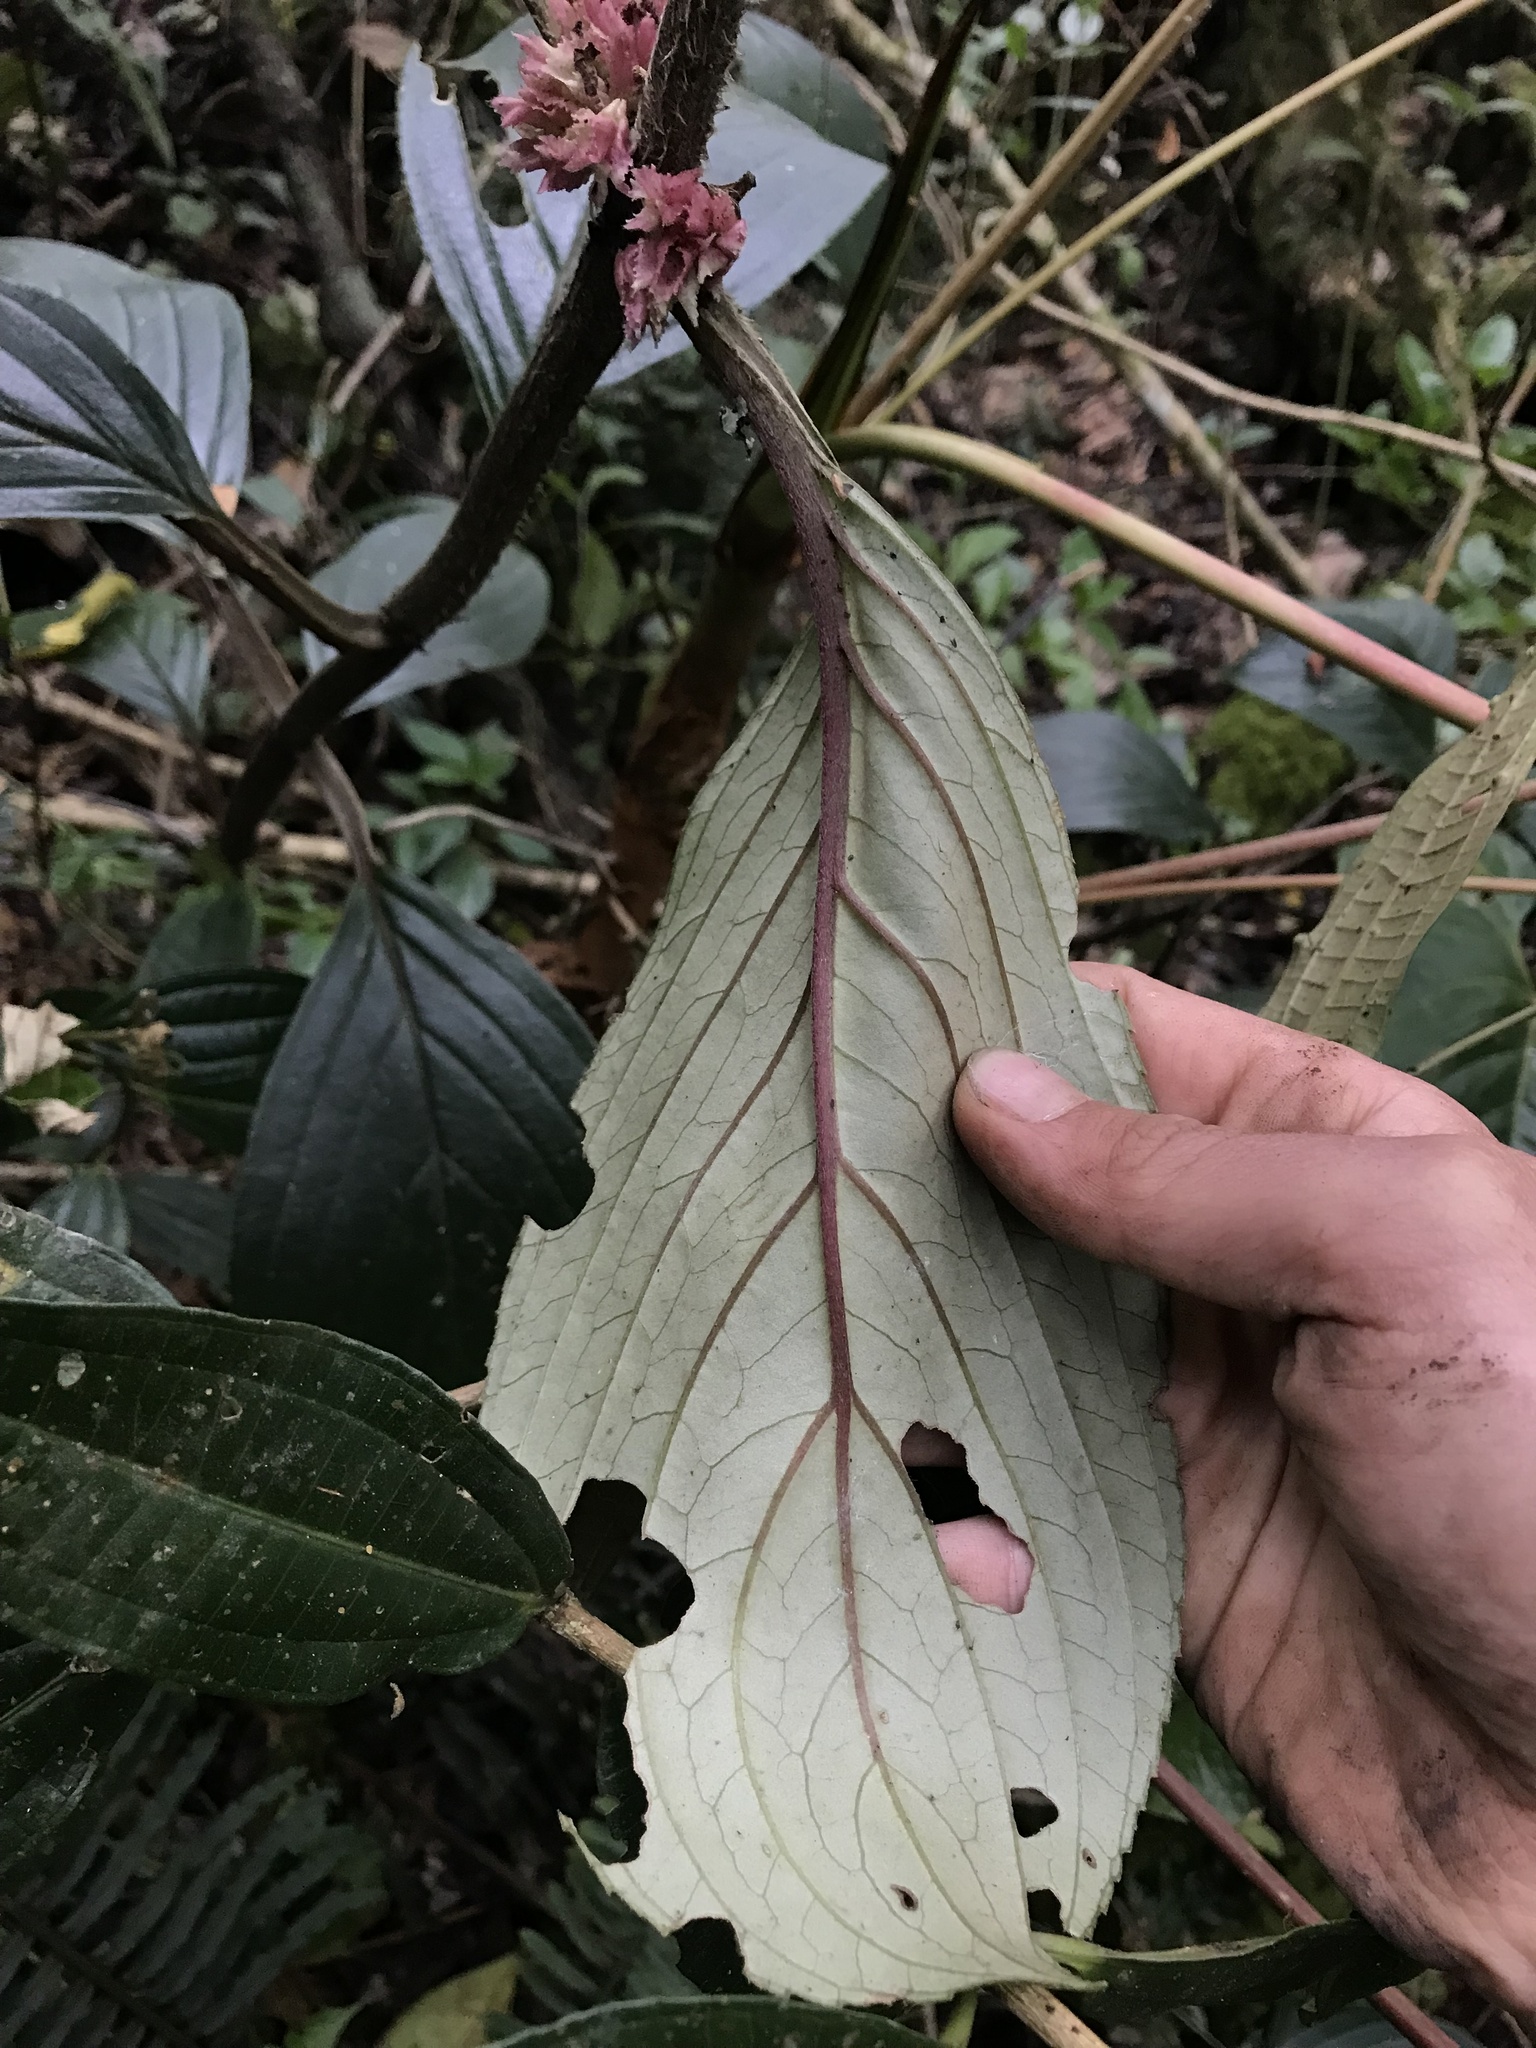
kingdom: Plantae
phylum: Tracheophyta
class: Magnoliopsida
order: Lamiales
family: Gesneriaceae
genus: Glossoloma
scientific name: Glossoloma ichthyoderma
